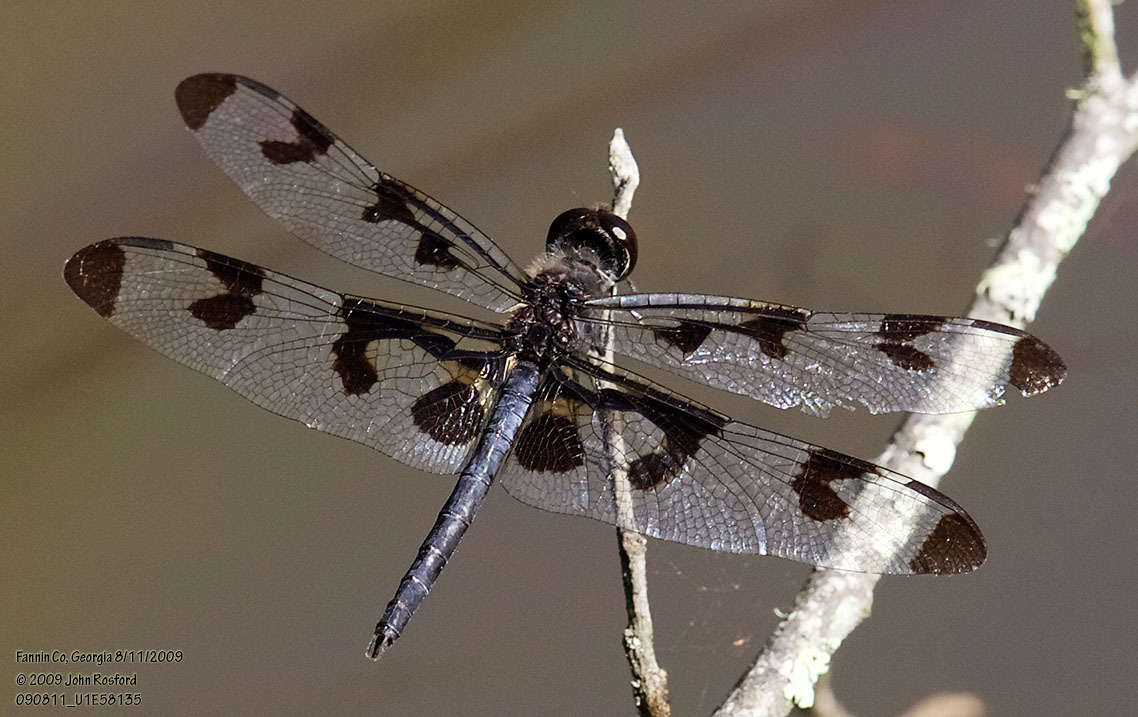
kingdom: Animalia
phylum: Arthropoda
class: Insecta
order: Odonata
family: Libellulidae
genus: Celithemis
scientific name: Celithemis fasciata
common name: Banded pennant
